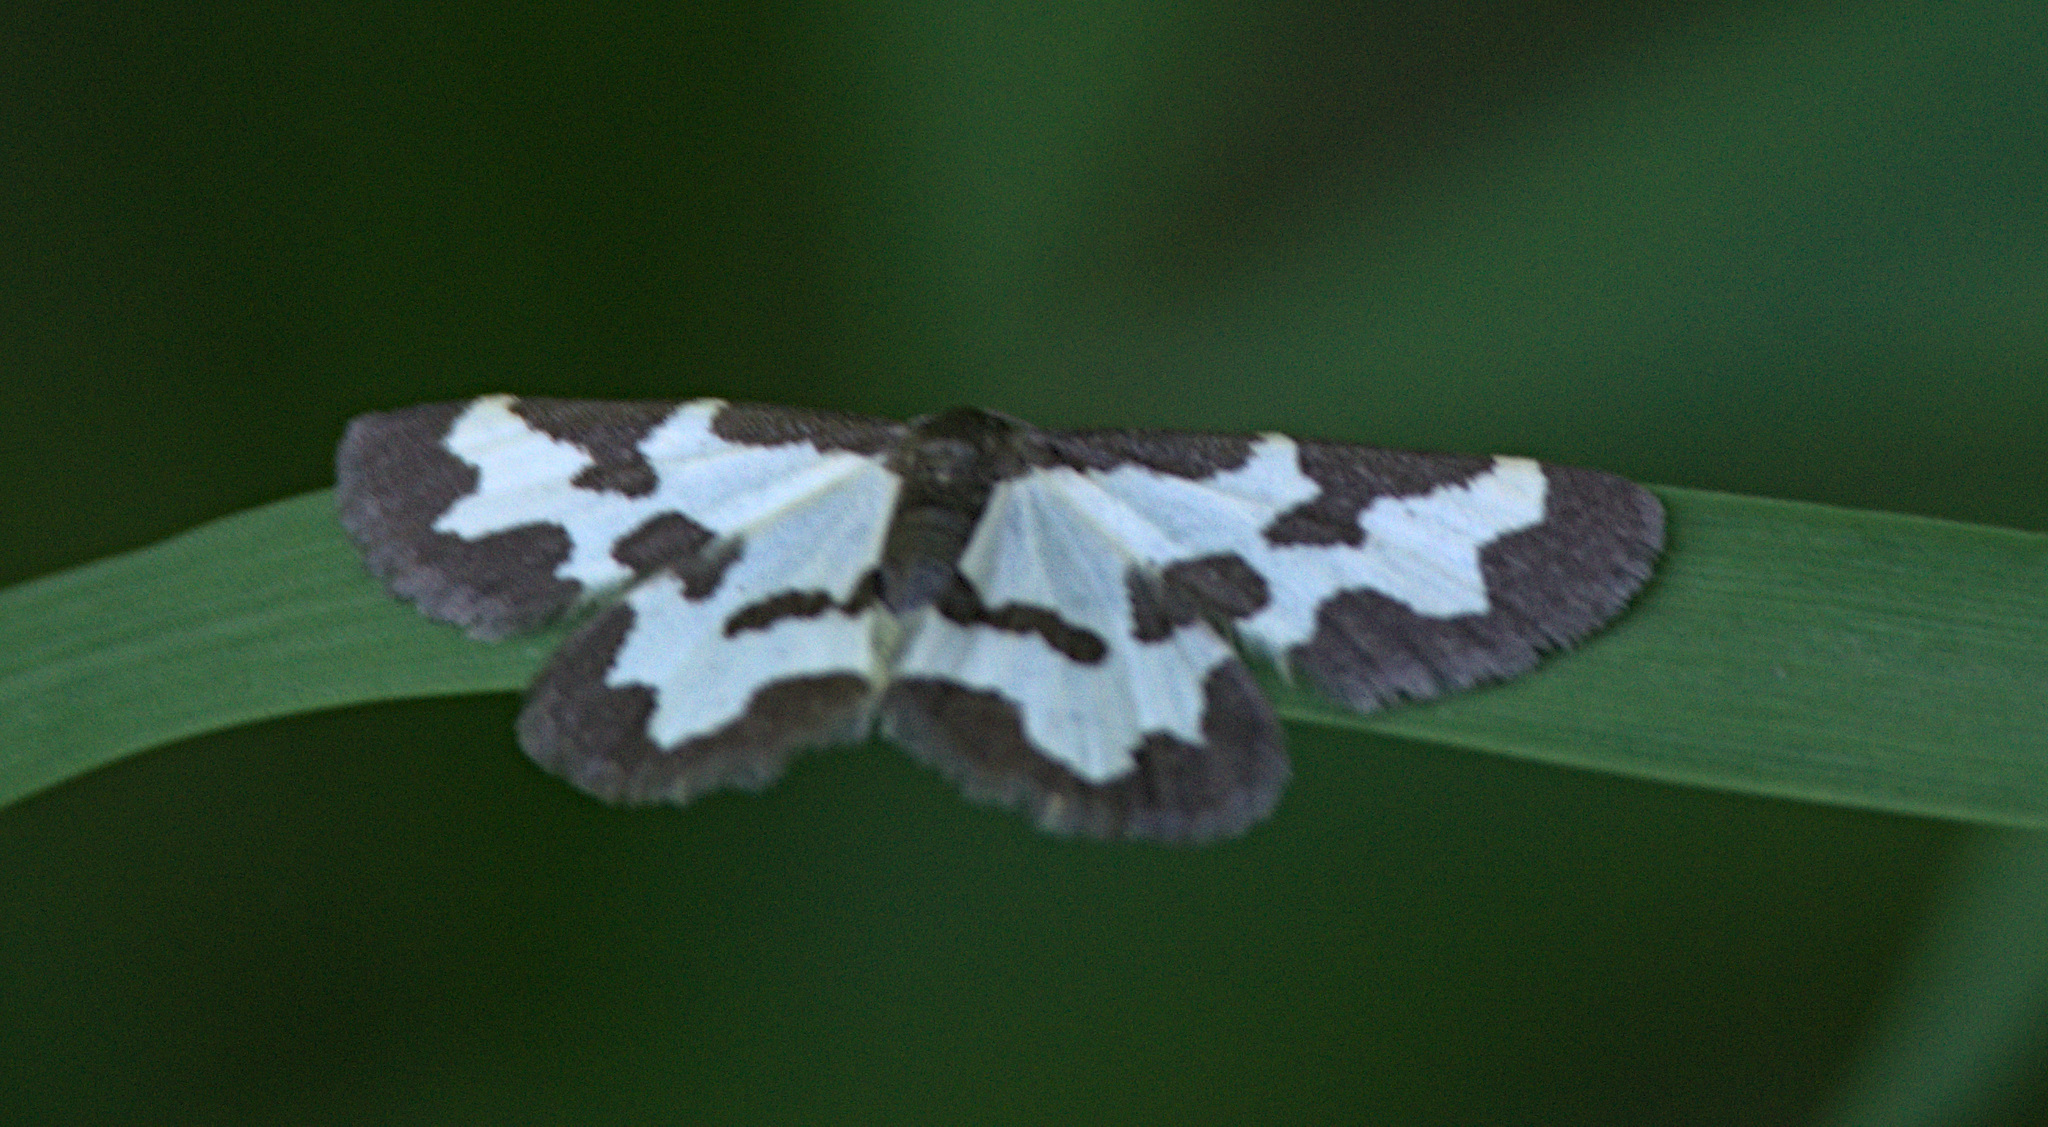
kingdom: Animalia
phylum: Arthropoda
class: Insecta
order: Lepidoptera
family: Geometridae
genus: Lomaspilis
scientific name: Lomaspilis marginata
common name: Clouded border
